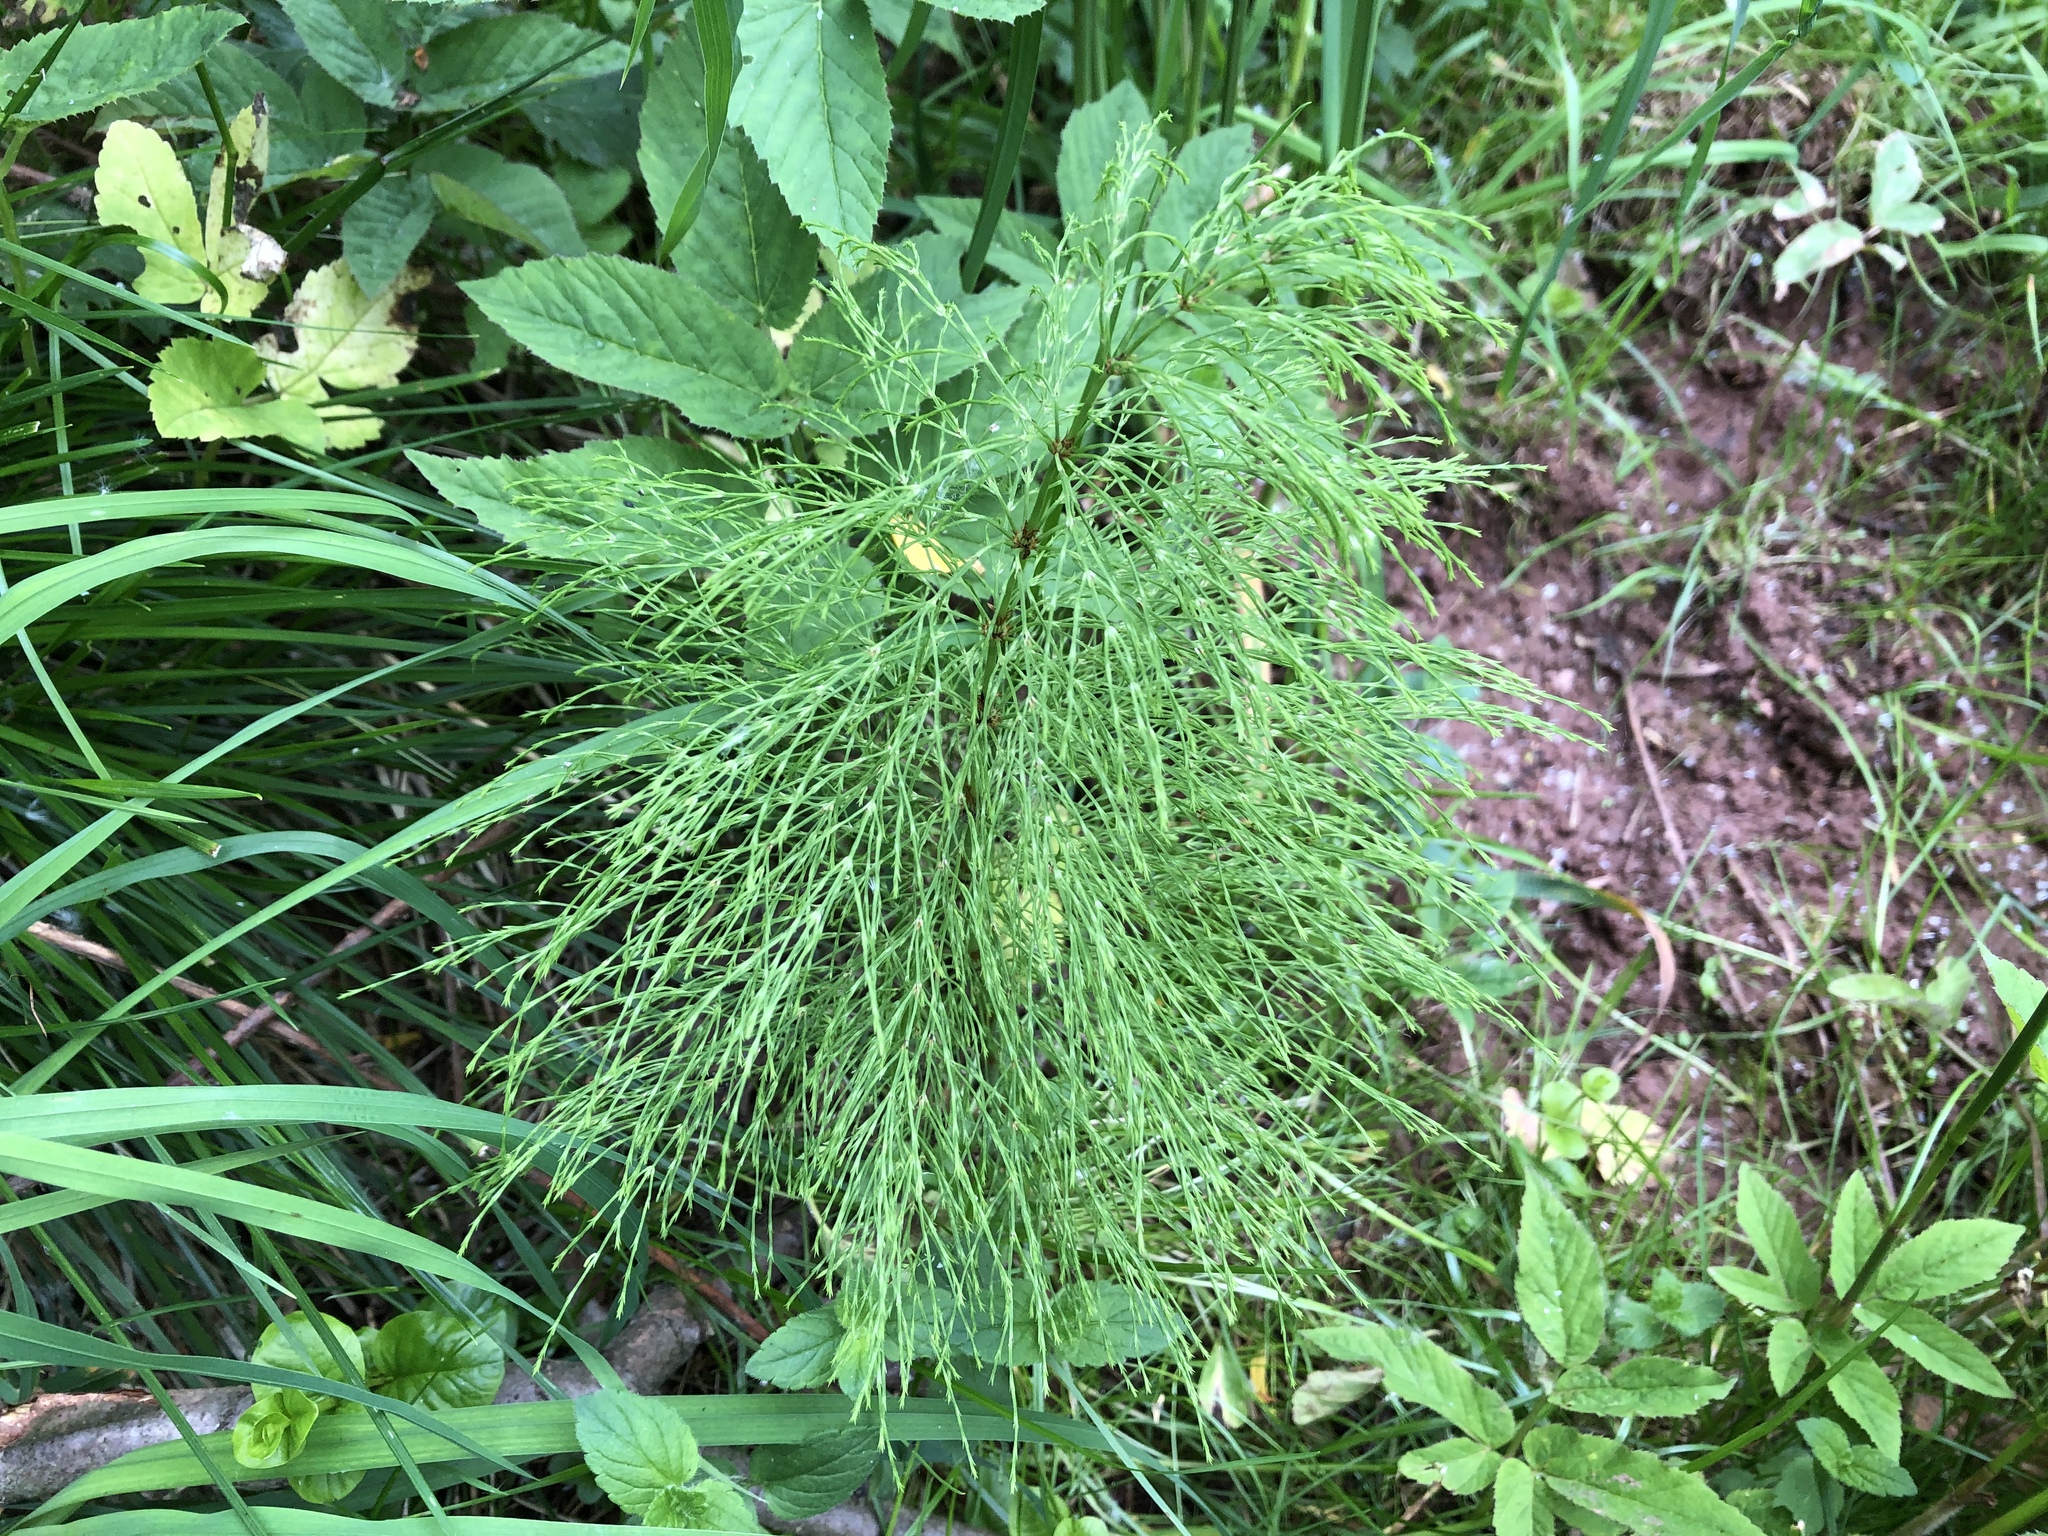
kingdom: Plantae
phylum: Tracheophyta
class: Polypodiopsida
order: Equisetales
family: Equisetaceae
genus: Equisetum
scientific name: Equisetum sylvaticum
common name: Wood horsetail
